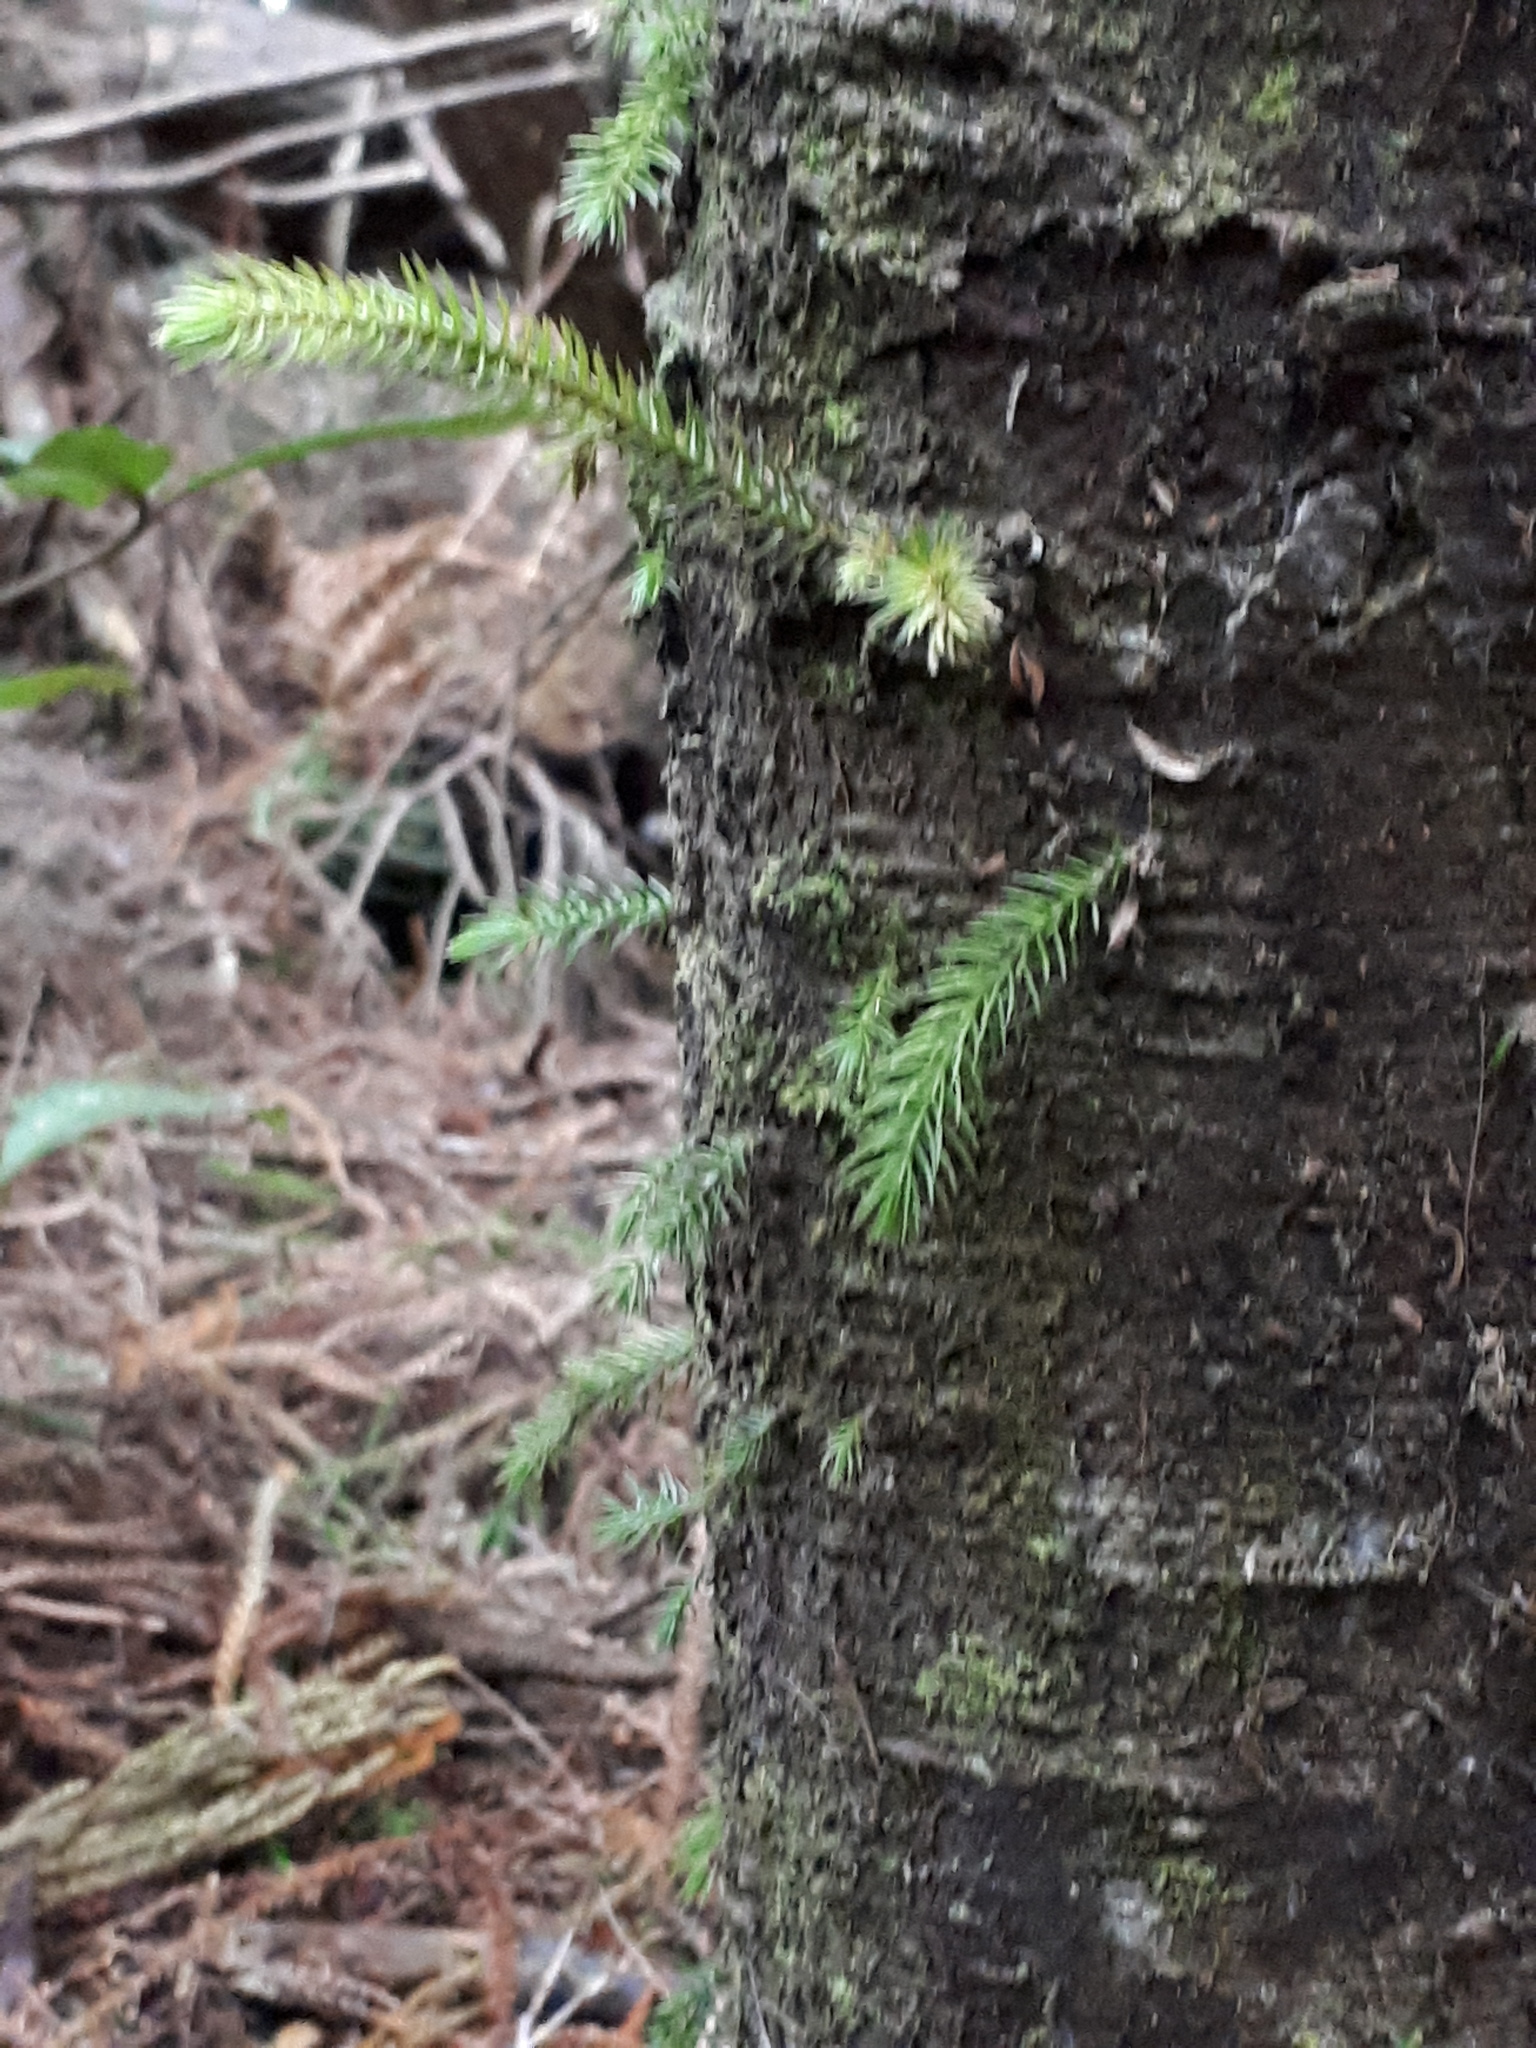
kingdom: Plantae
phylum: Tracheophyta
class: Pinopsida
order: Pinales
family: Podocarpaceae
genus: Dacrydium
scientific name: Dacrydium cupressinum
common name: Red pine
